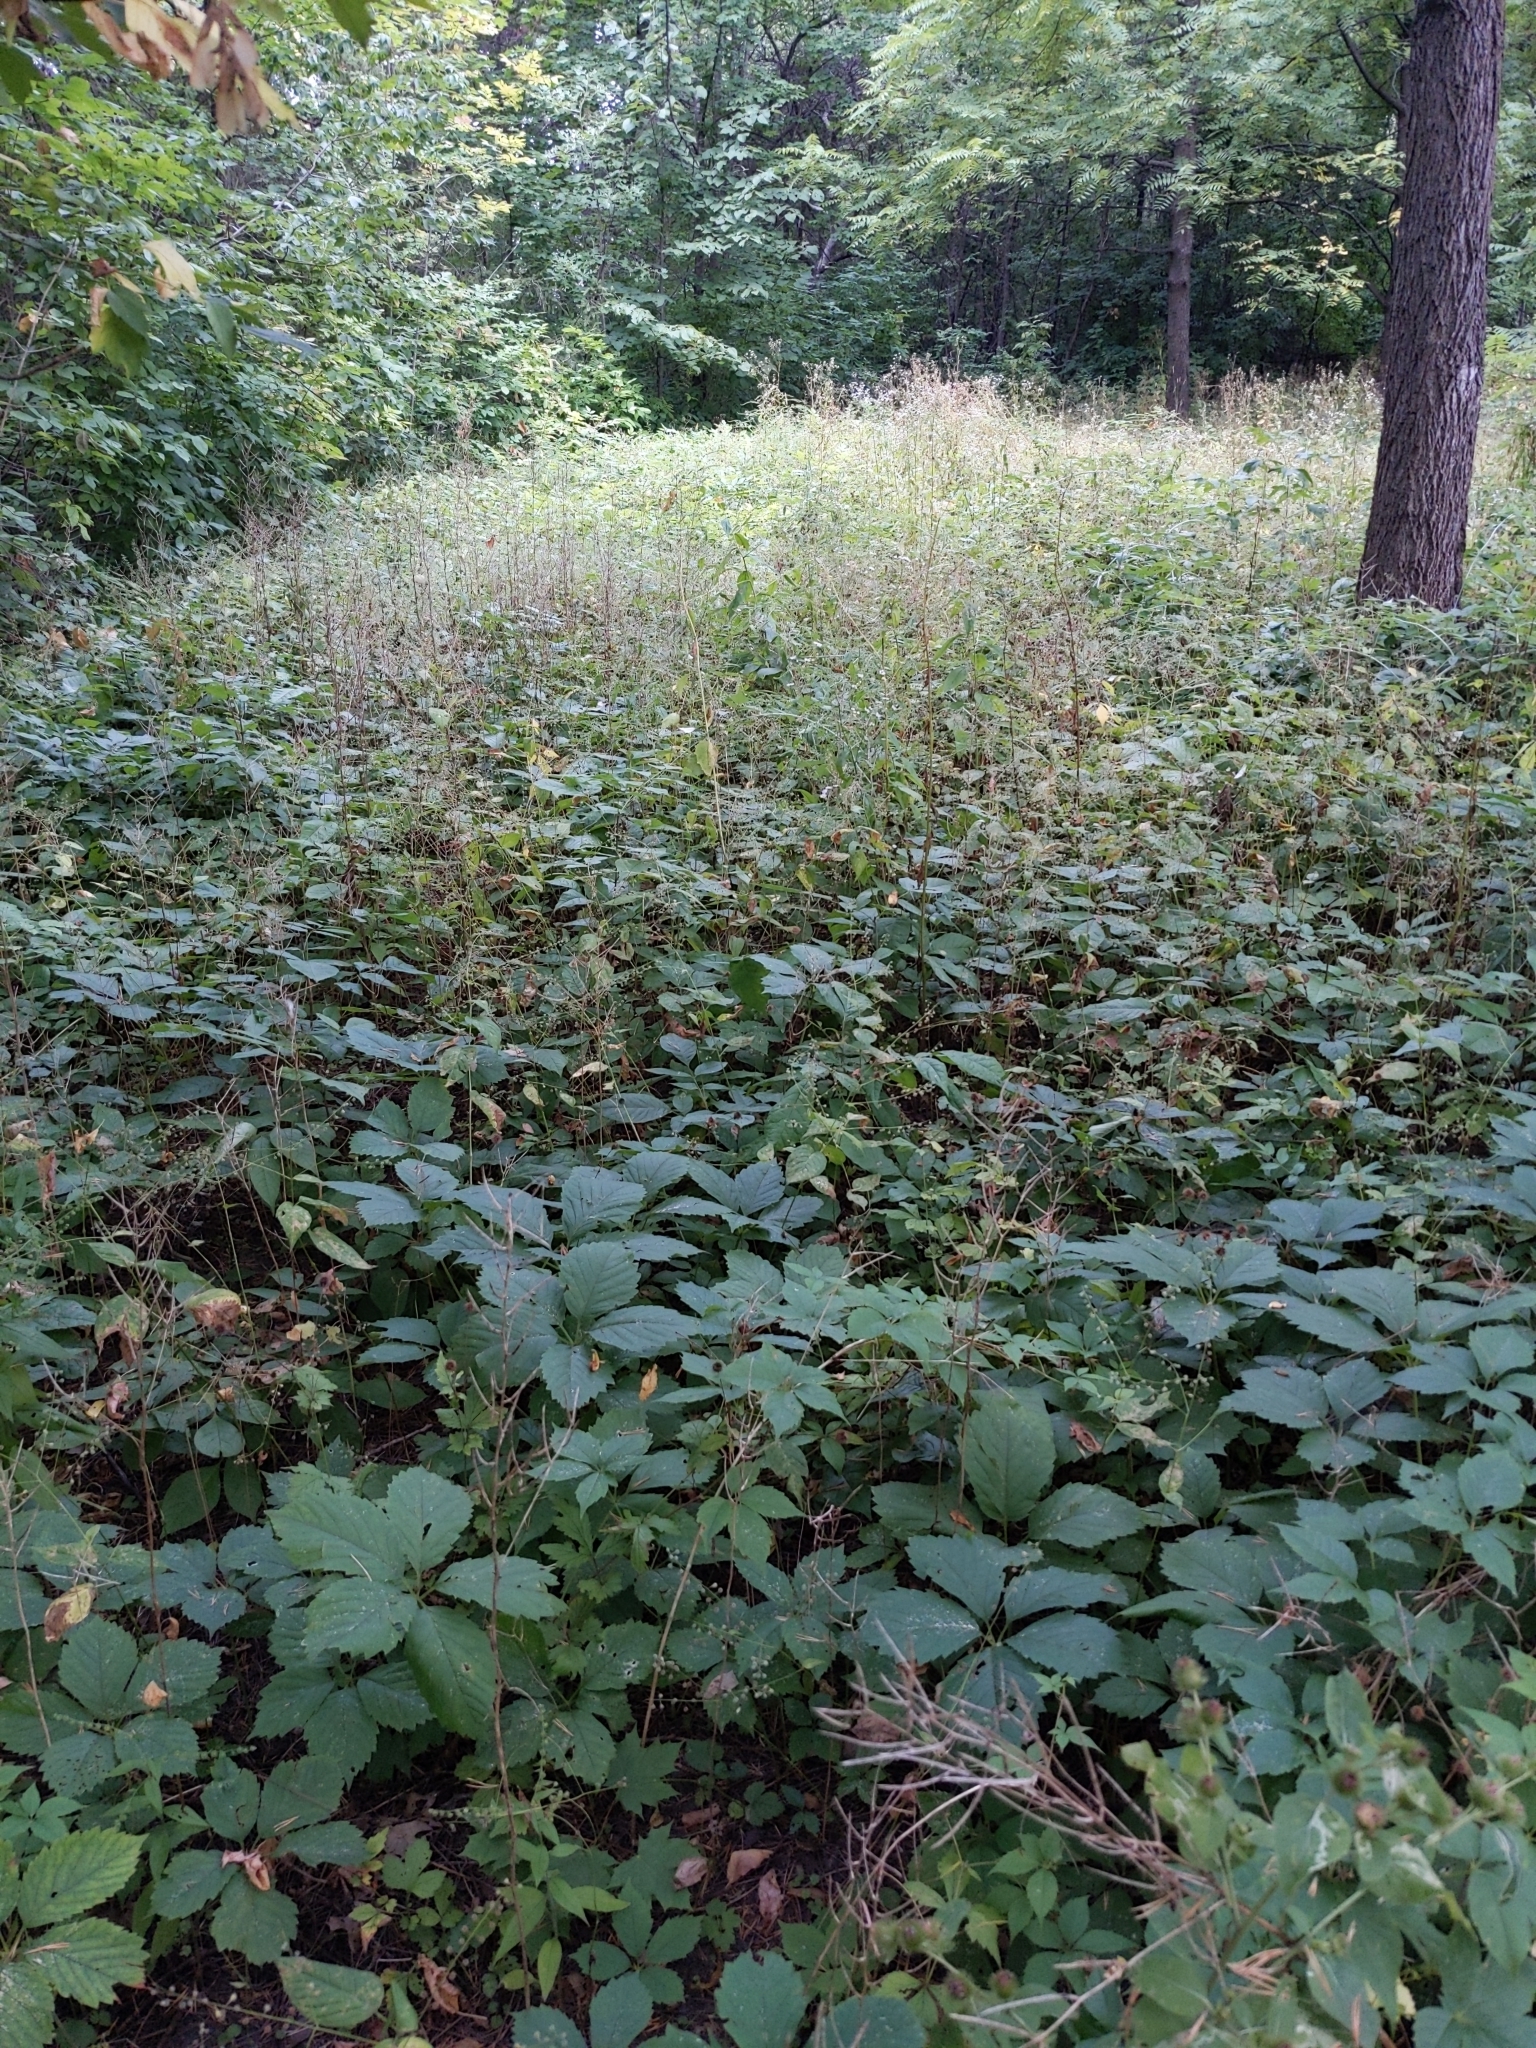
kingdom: Plantae
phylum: Tracheophyta
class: Magnoliopsida
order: Brassicales
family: Brassicaceae
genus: Alliaria
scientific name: Alliaria petiolata
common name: Garlic mustard
